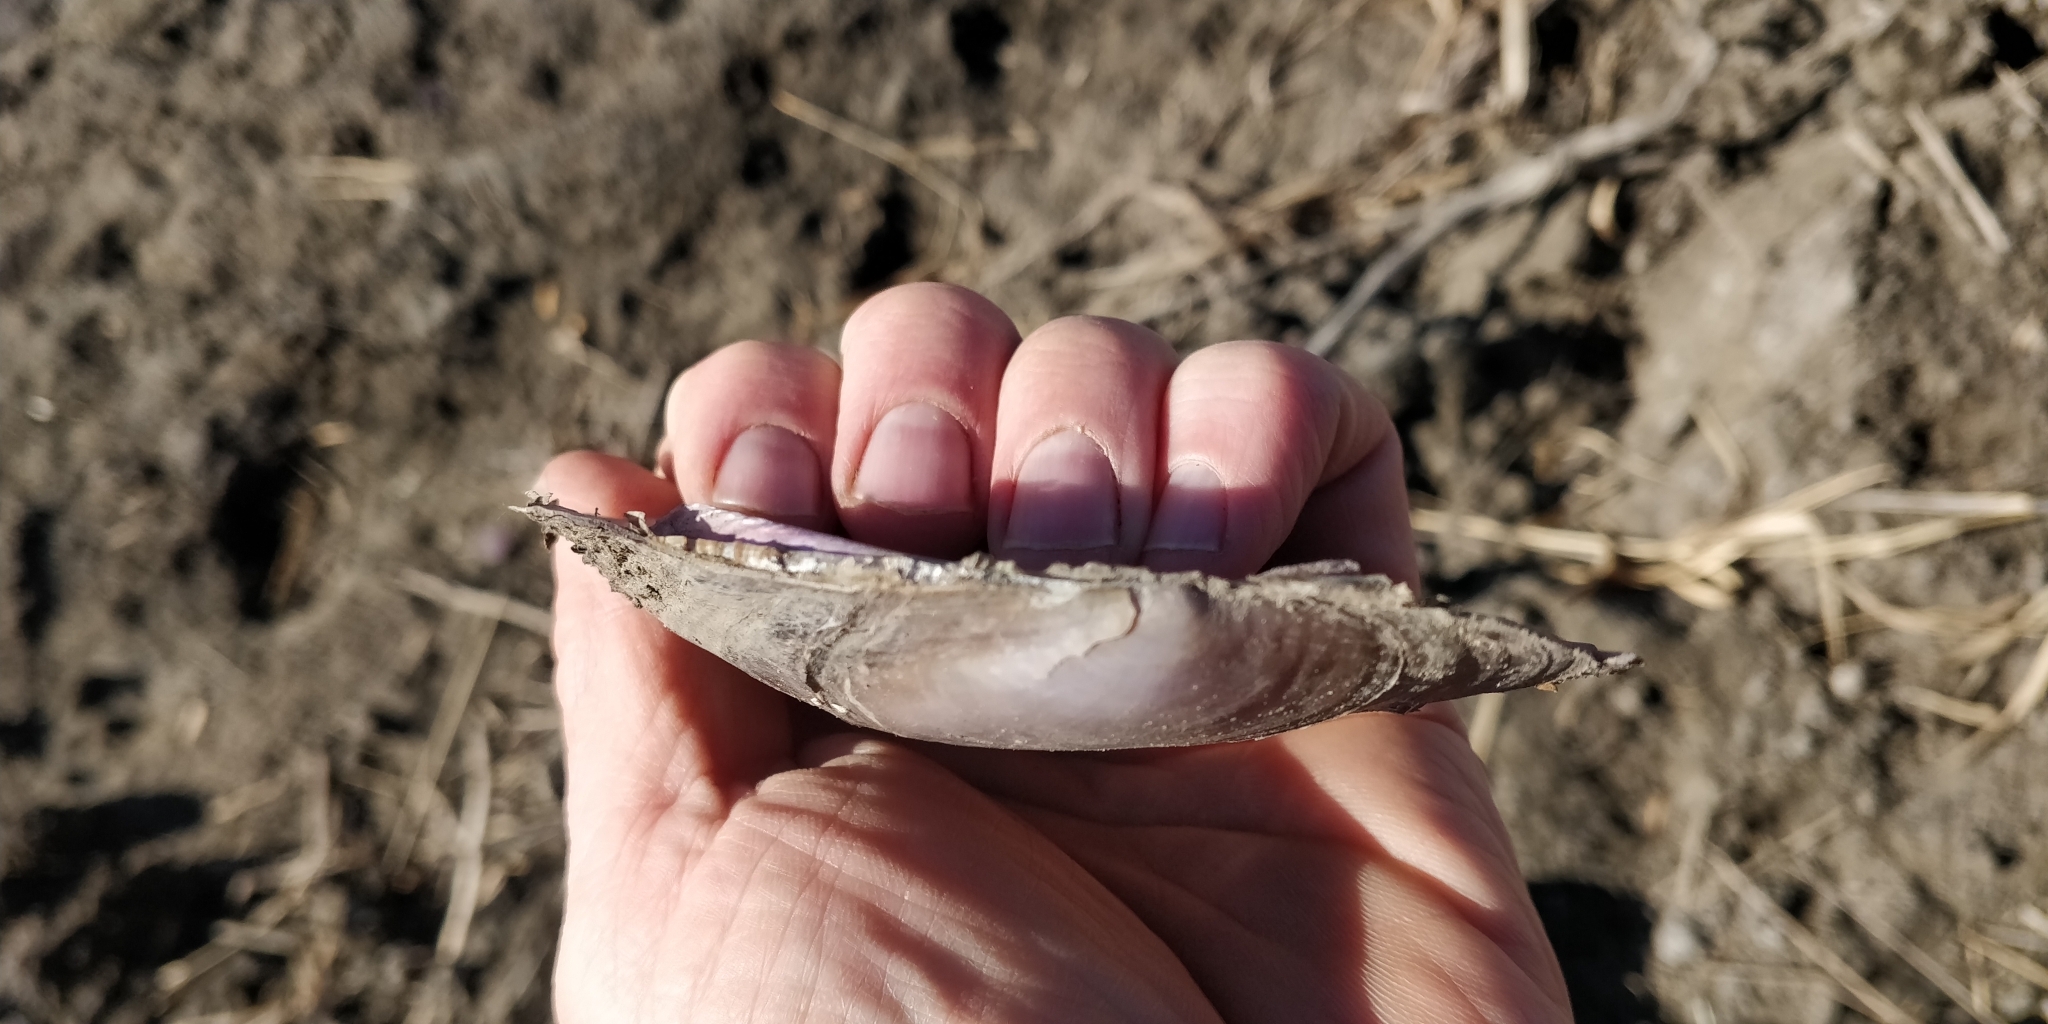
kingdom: Animalia
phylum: Mollusca
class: Bivalvia
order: Unionida
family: Unionidae
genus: Potamilus
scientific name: Potamilus ohiensis
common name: Pink papershell
